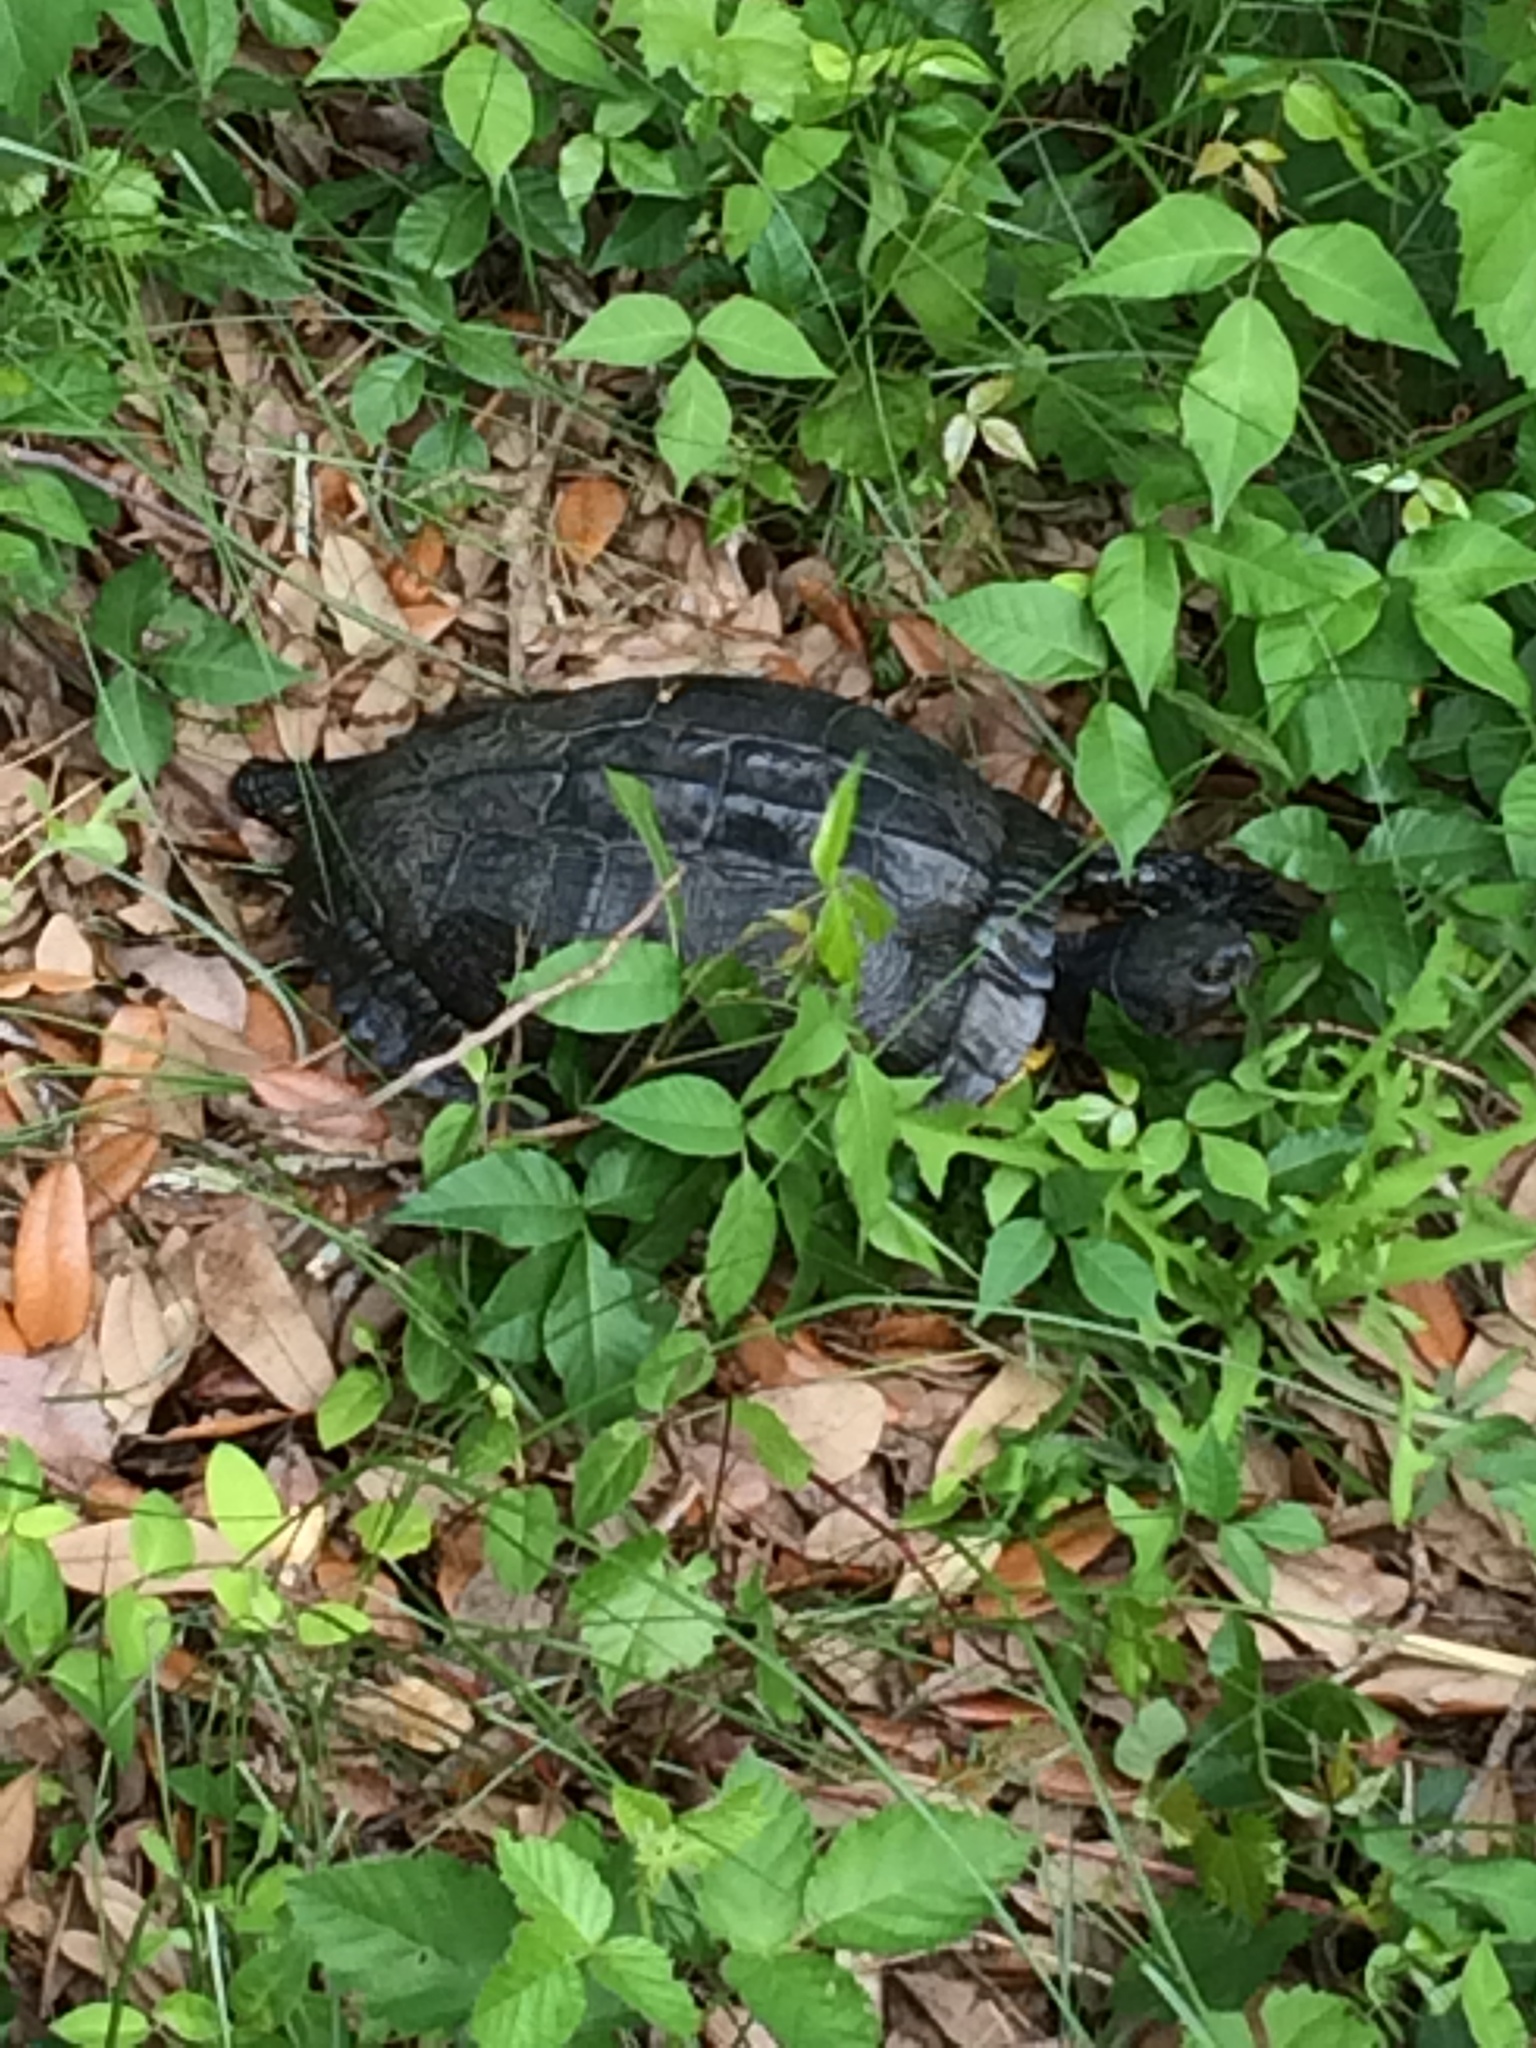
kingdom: Animalia
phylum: Chordata
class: Testudines
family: Emydidae
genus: Trachemys
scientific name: Trachemys scripta
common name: Slider
